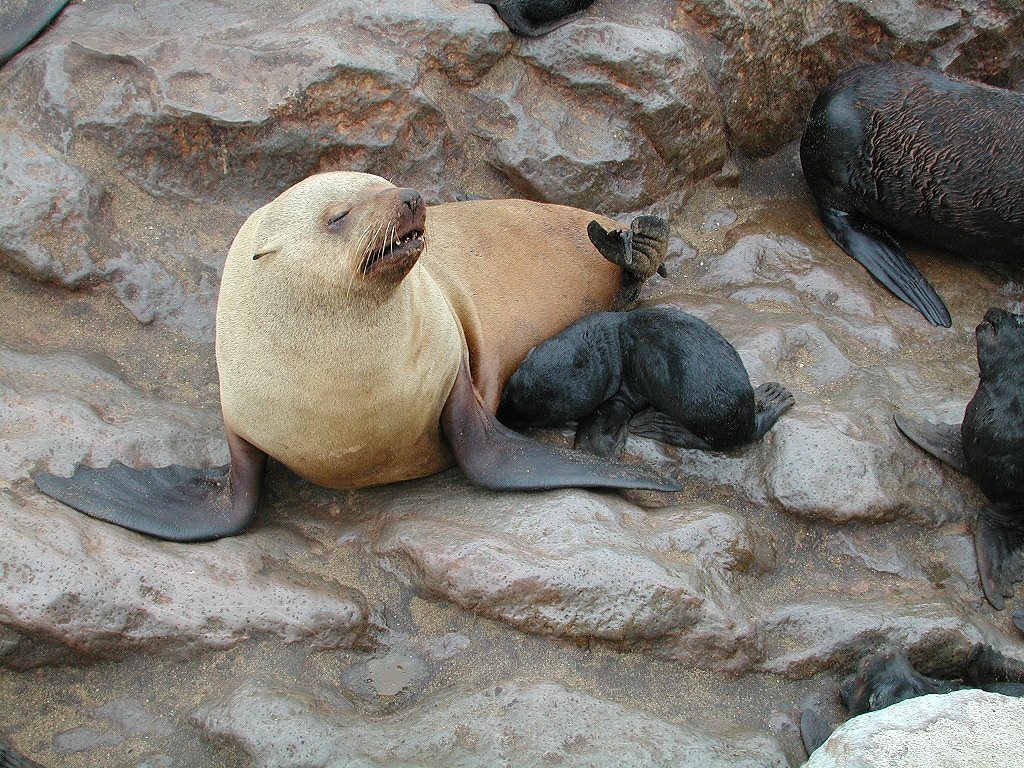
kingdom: Animalia
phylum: Chordata
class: Mammalia
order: Carnivora
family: Otariidae
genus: Arctocephalus
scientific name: Arctocephalus pusillus
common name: Brown fur seal
